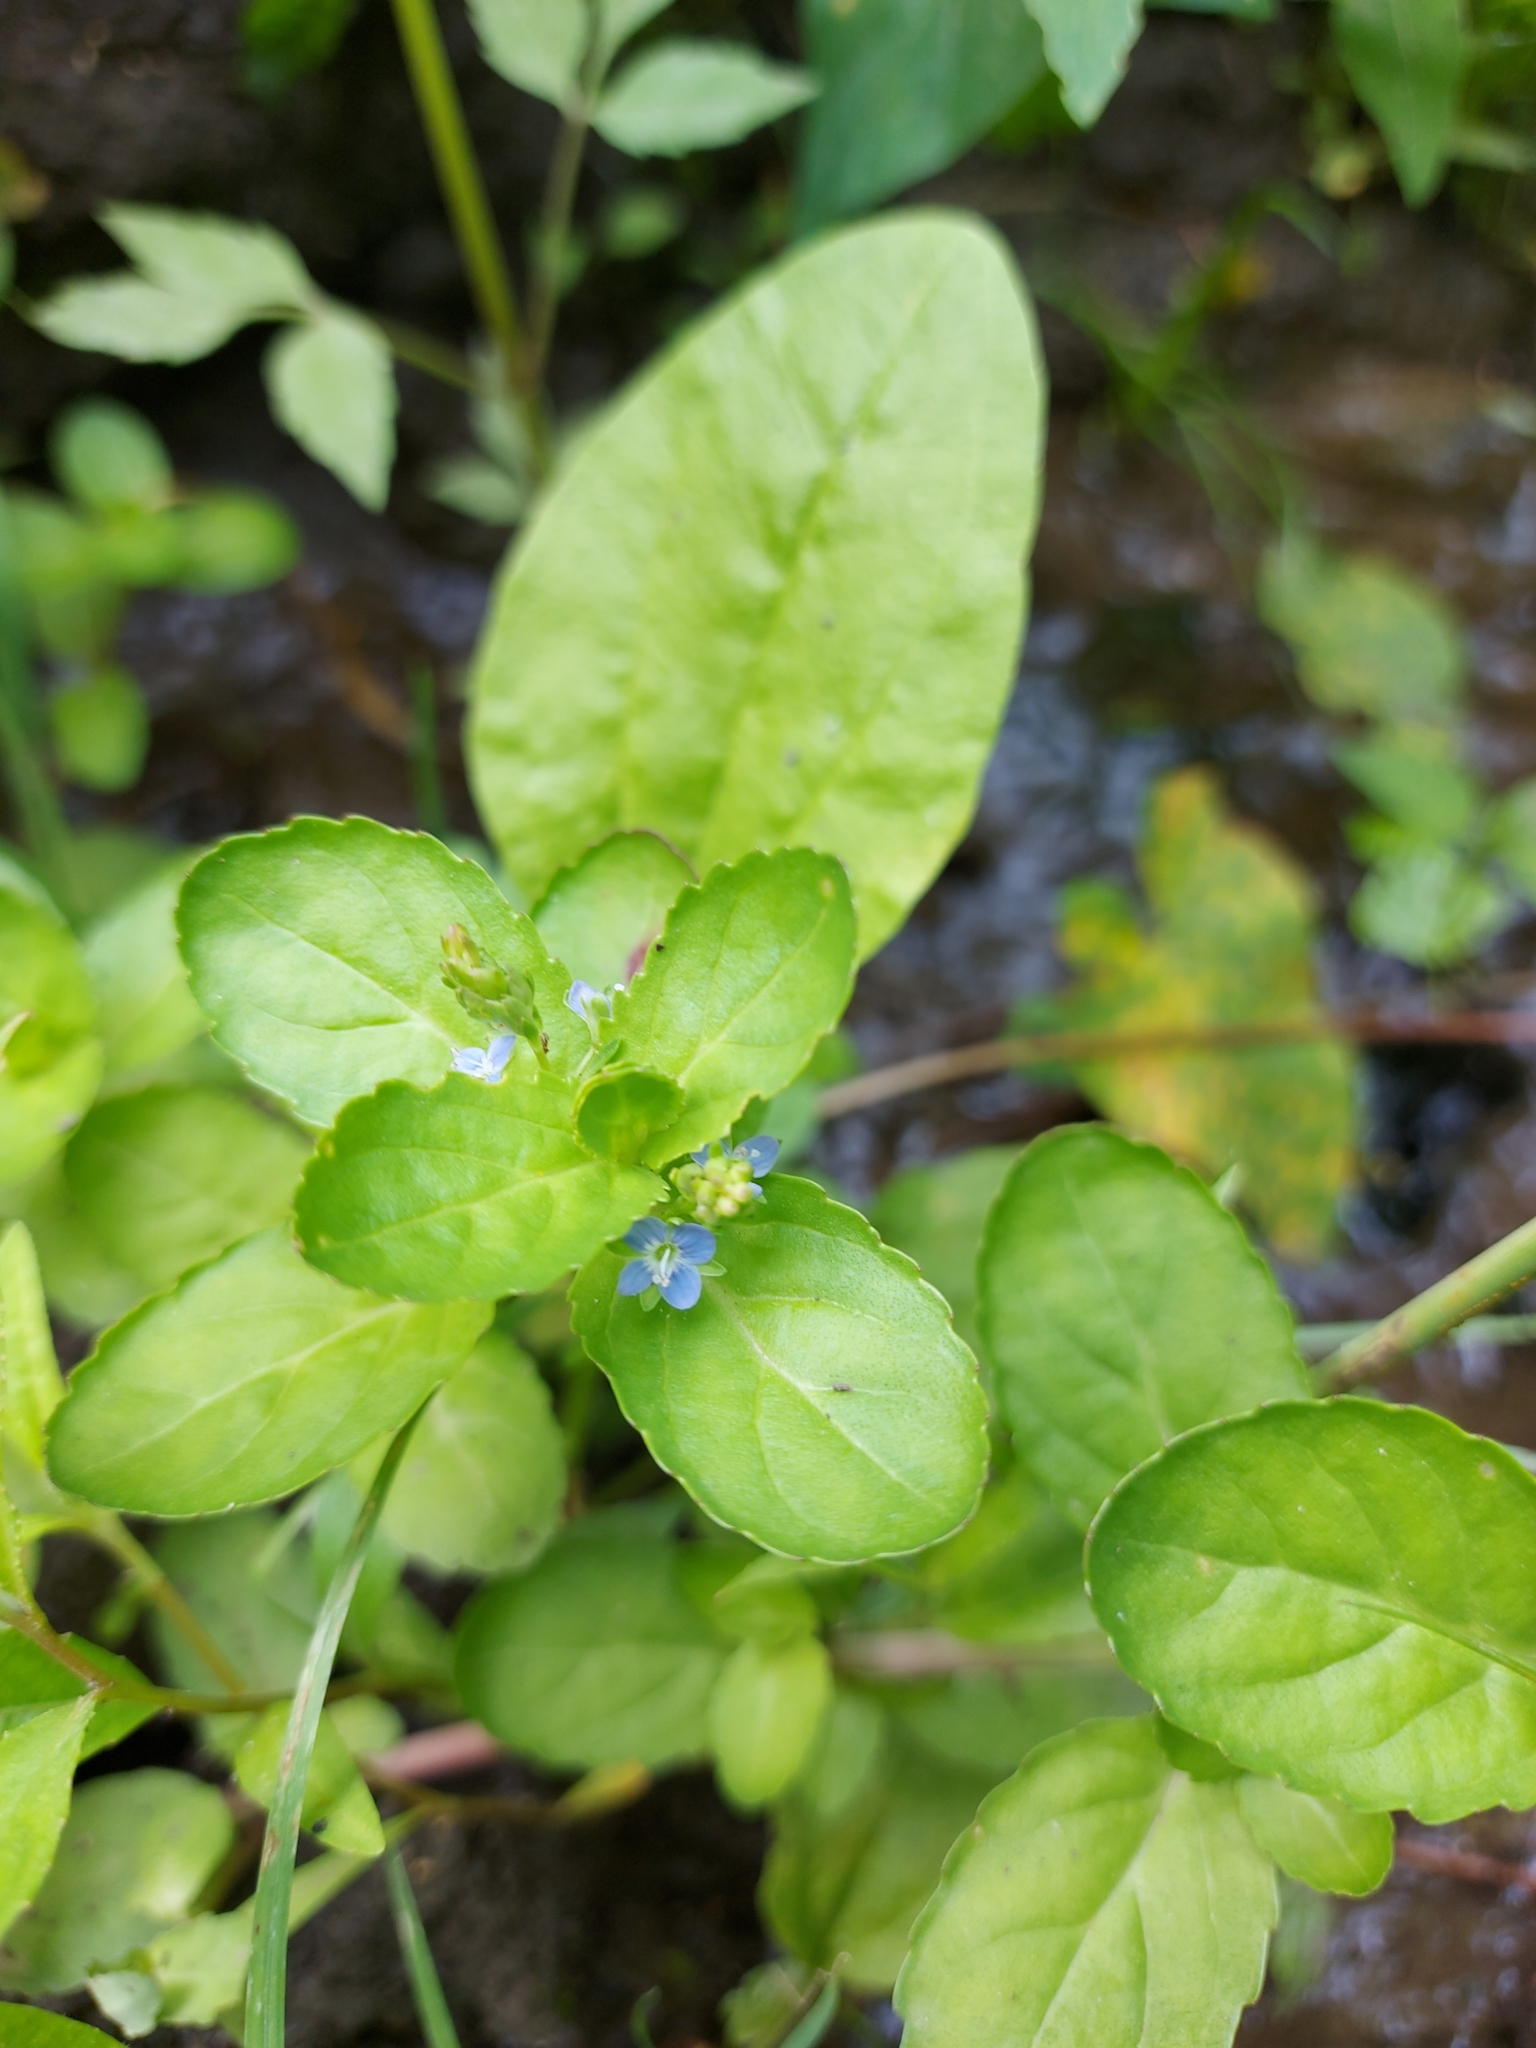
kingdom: Plantae
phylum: Tracheophyta
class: Magnoliopsida
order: Lamiales
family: Plantaginaceae
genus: Veronica
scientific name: Veronica beccabunga
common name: Brooklime
